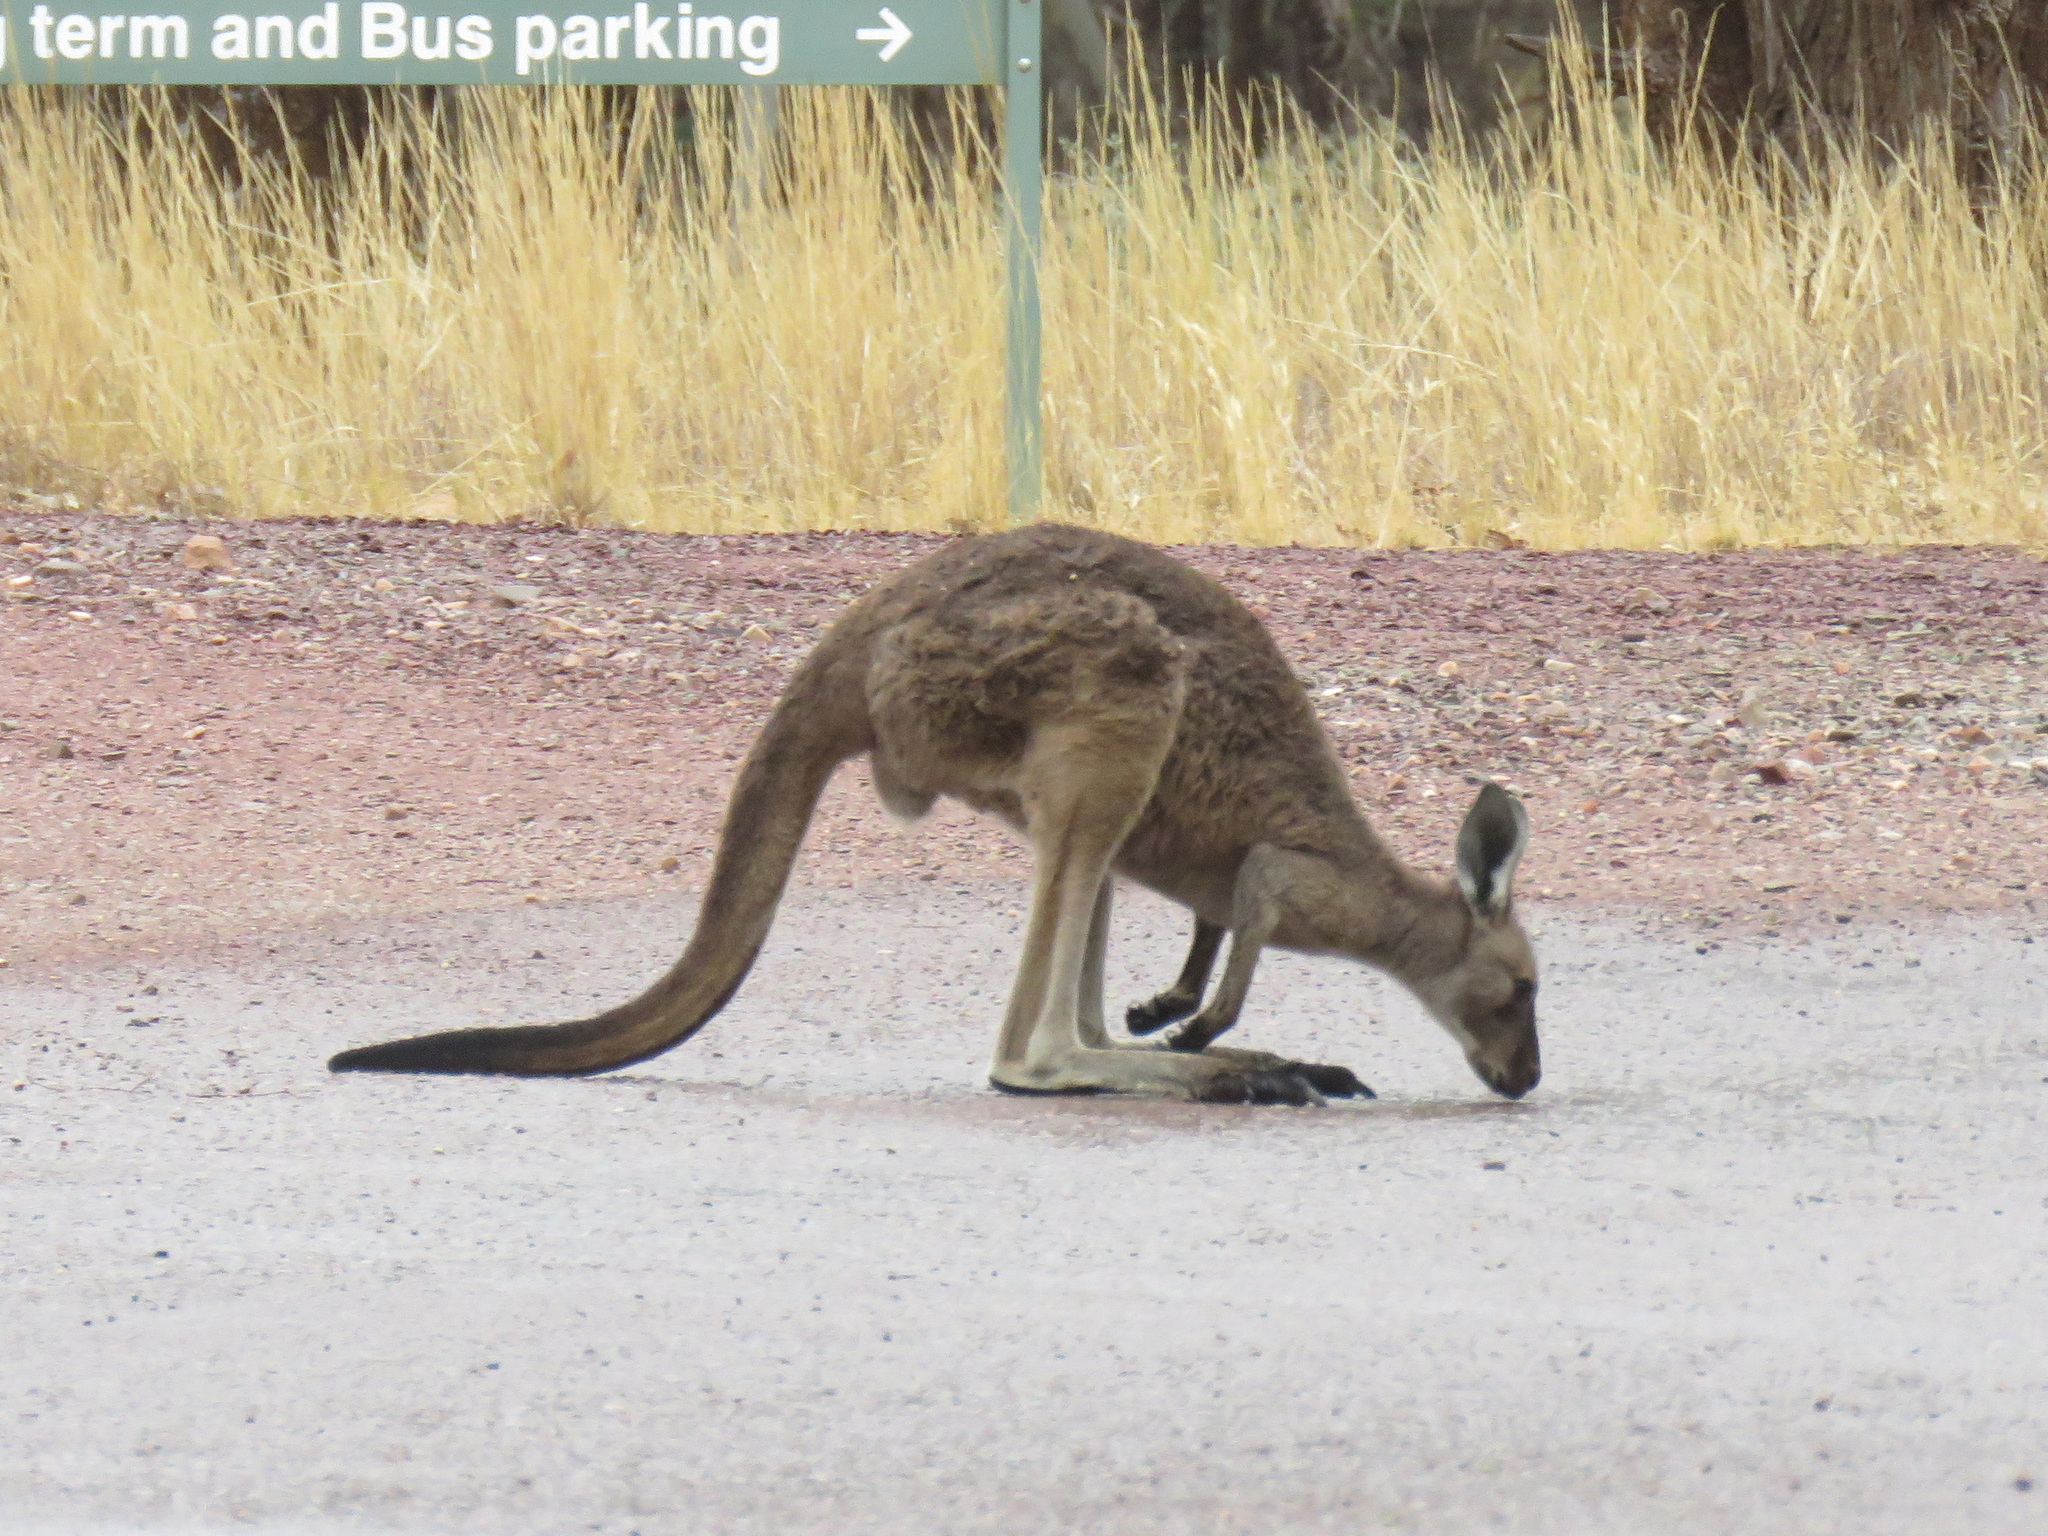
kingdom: Animalia
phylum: Chordata
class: Mammalia
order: Diprotodontia
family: Macropodidae
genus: Macropus
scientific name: Macropus fuliginosus
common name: Western grey kangaroo
